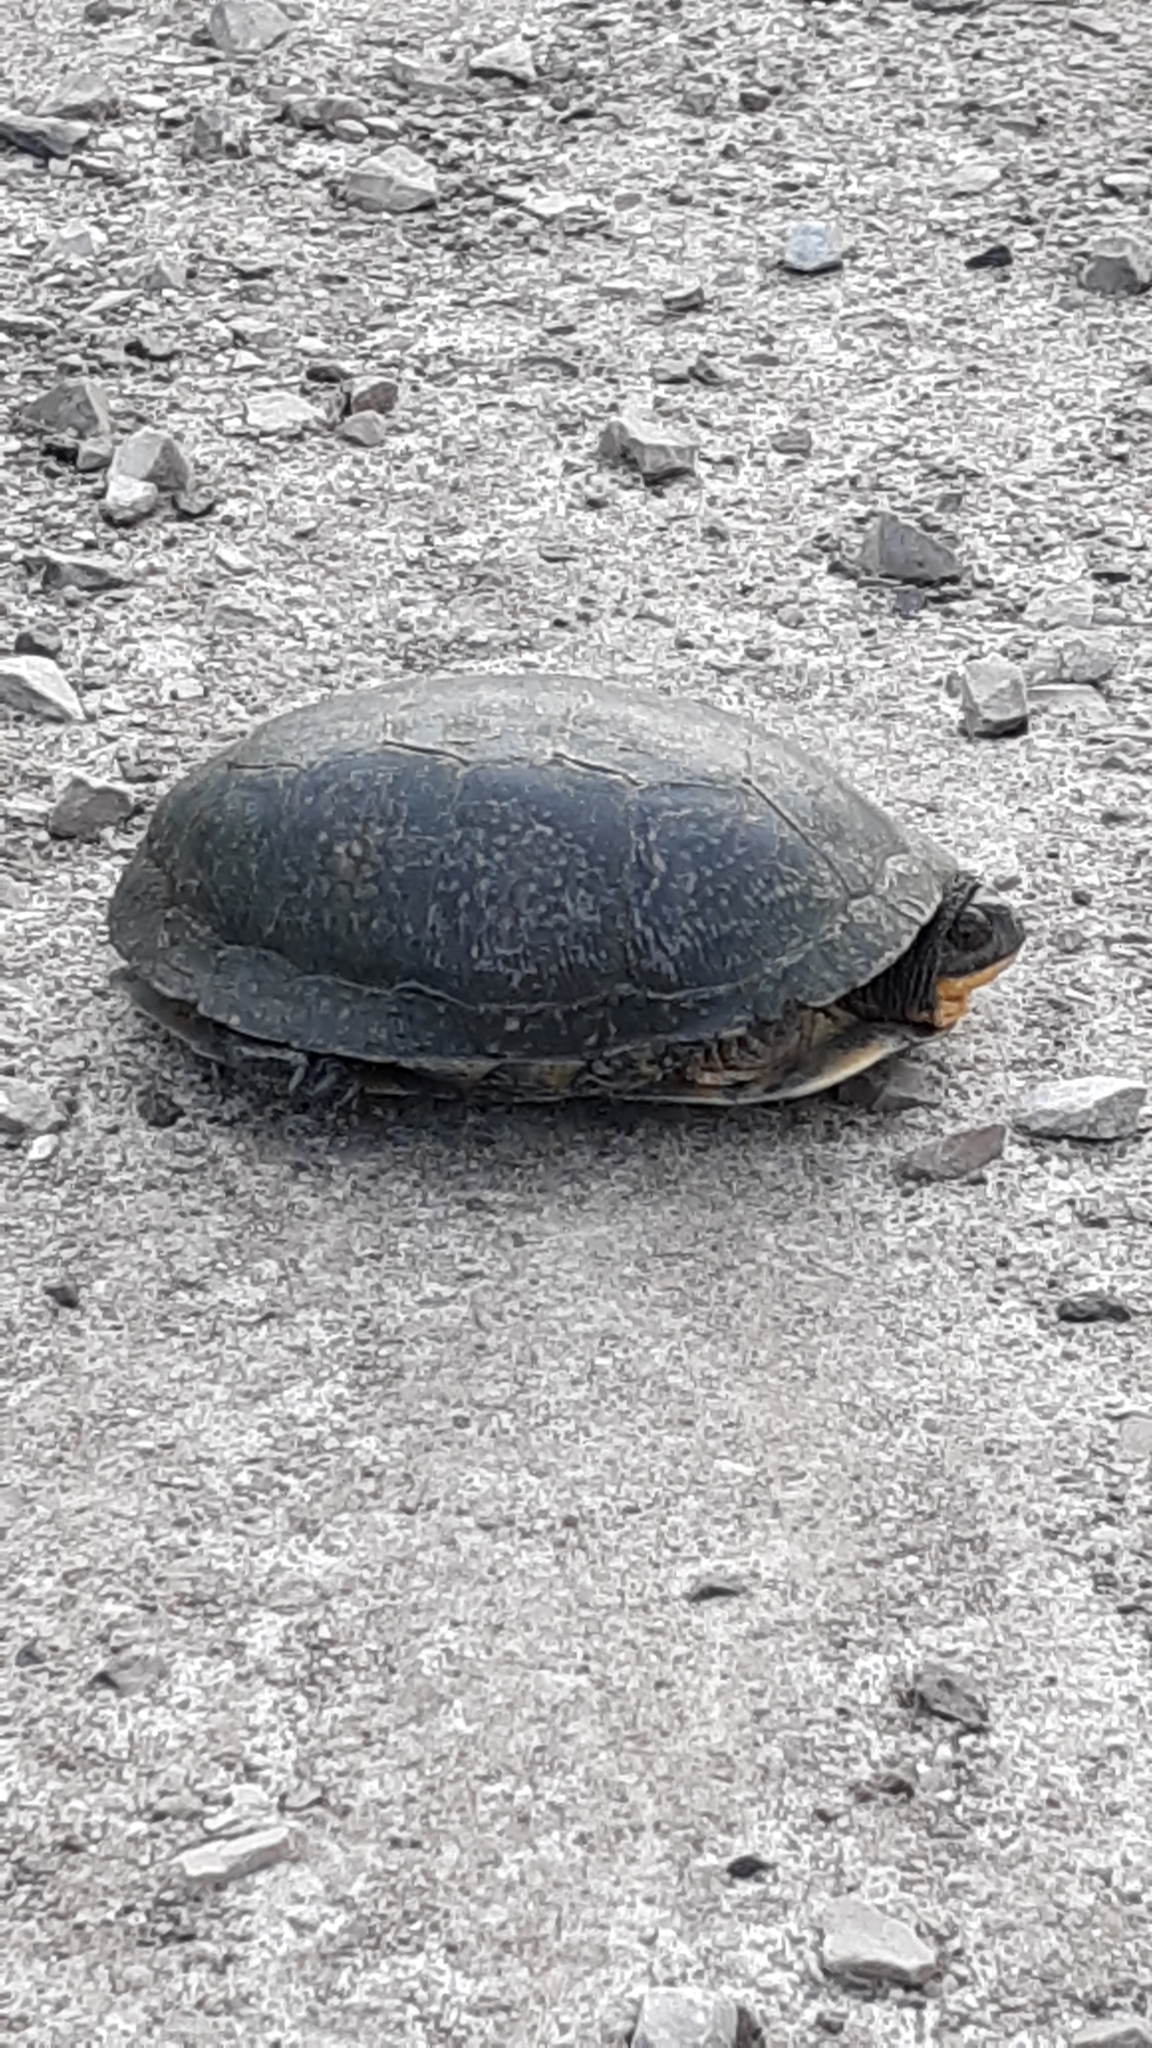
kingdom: Animalia
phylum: Chordata
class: Testudines
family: Emydidae
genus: Emys
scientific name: Emys blandingii
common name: Blanding's turtle
